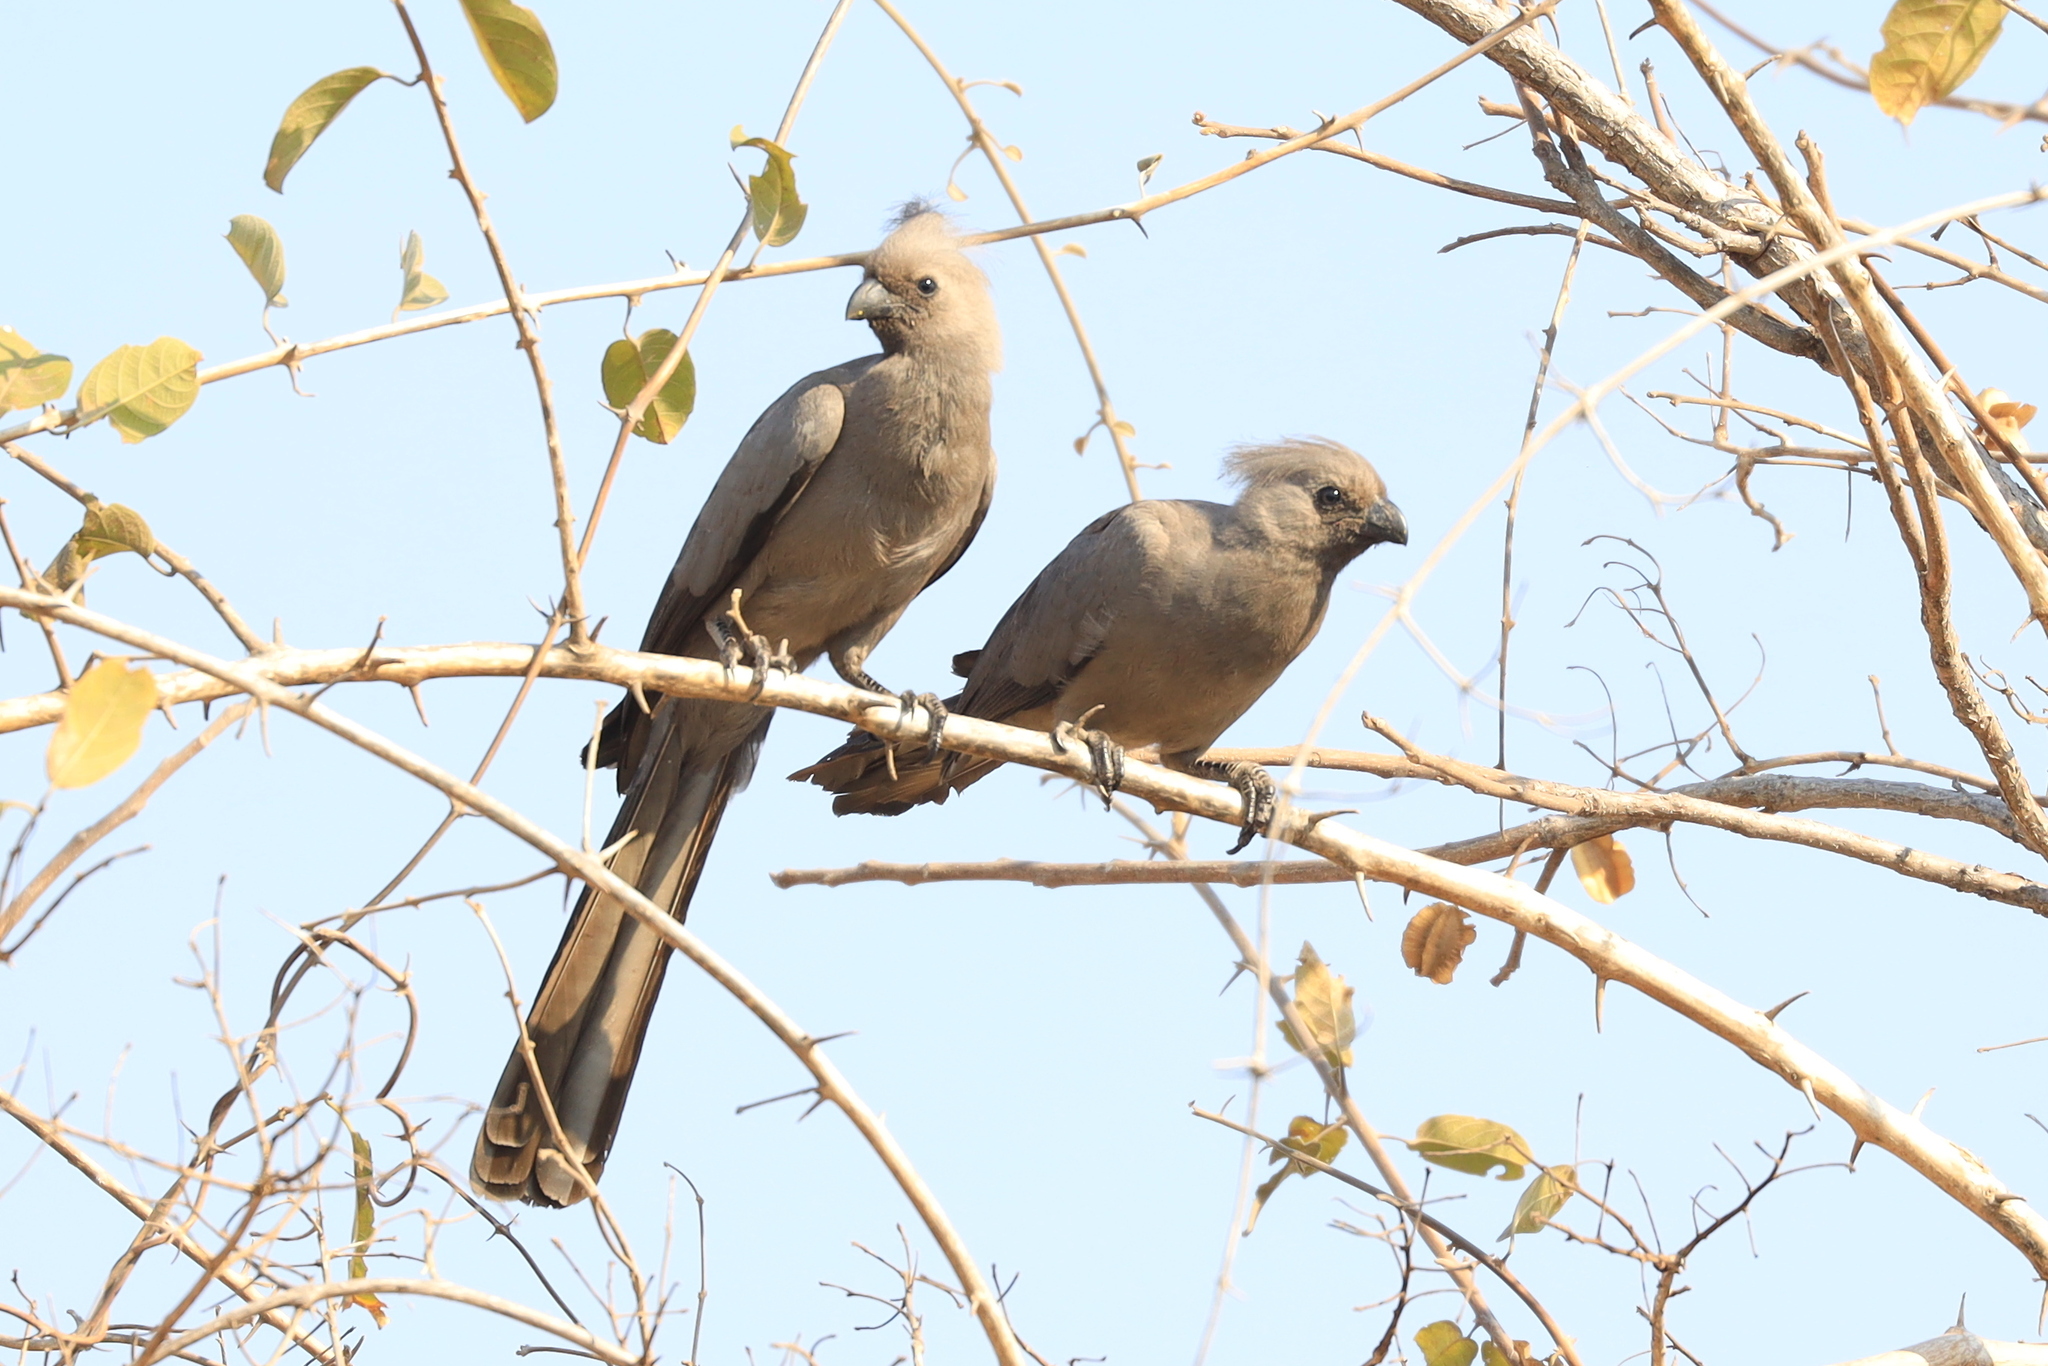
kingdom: Animalia
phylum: Chordata
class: Aves
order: Musophagiformes
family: Musophagidae
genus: Corythaixoides
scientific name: Corythaixoides concolor
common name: Grey go-away-bird
